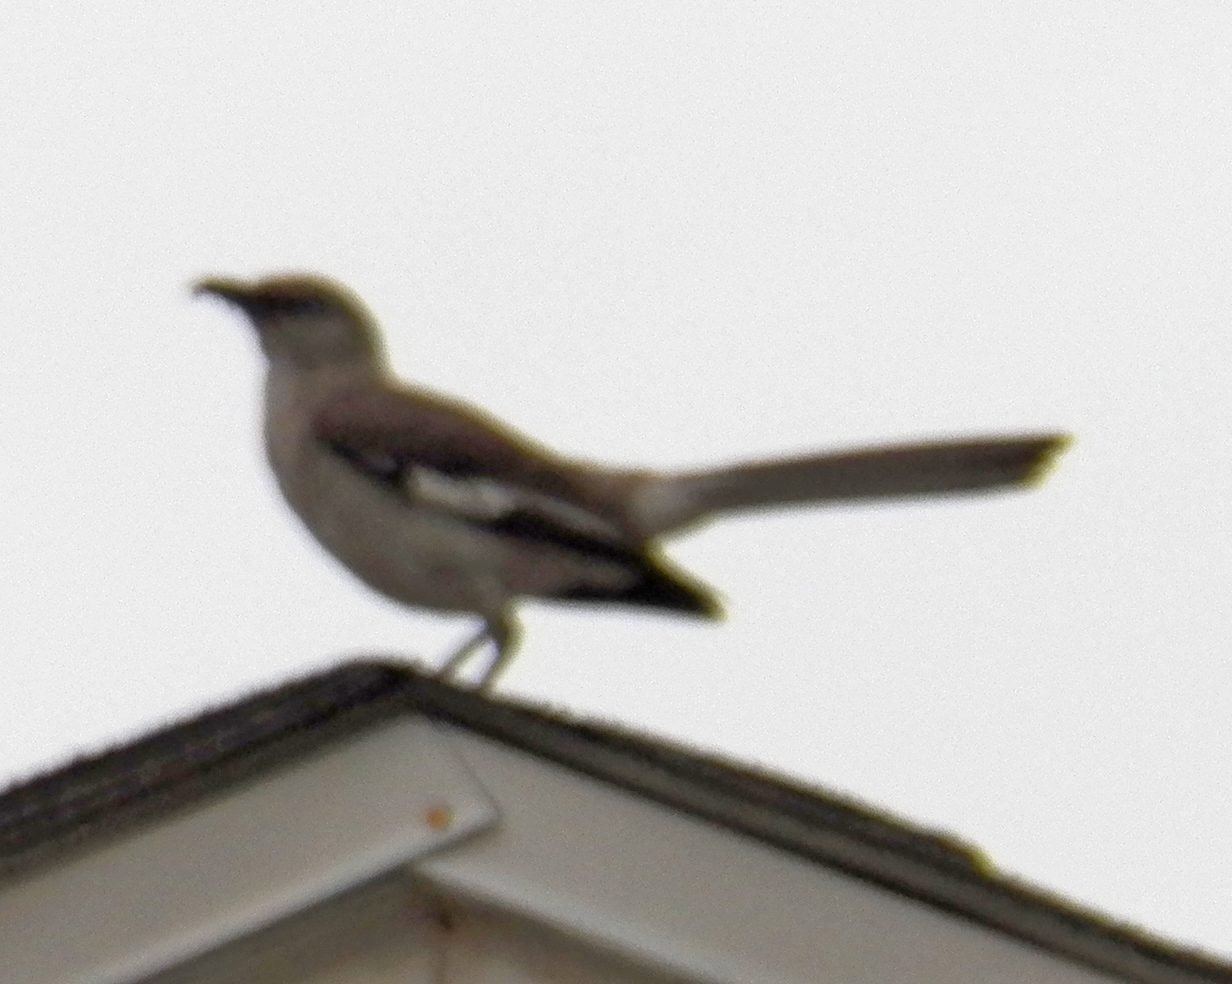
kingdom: Animalia
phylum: Chordata
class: Aves
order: Passeriformes
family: Mimidae
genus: Mimus
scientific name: Mimus polyglottos
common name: Northern mockingbird
